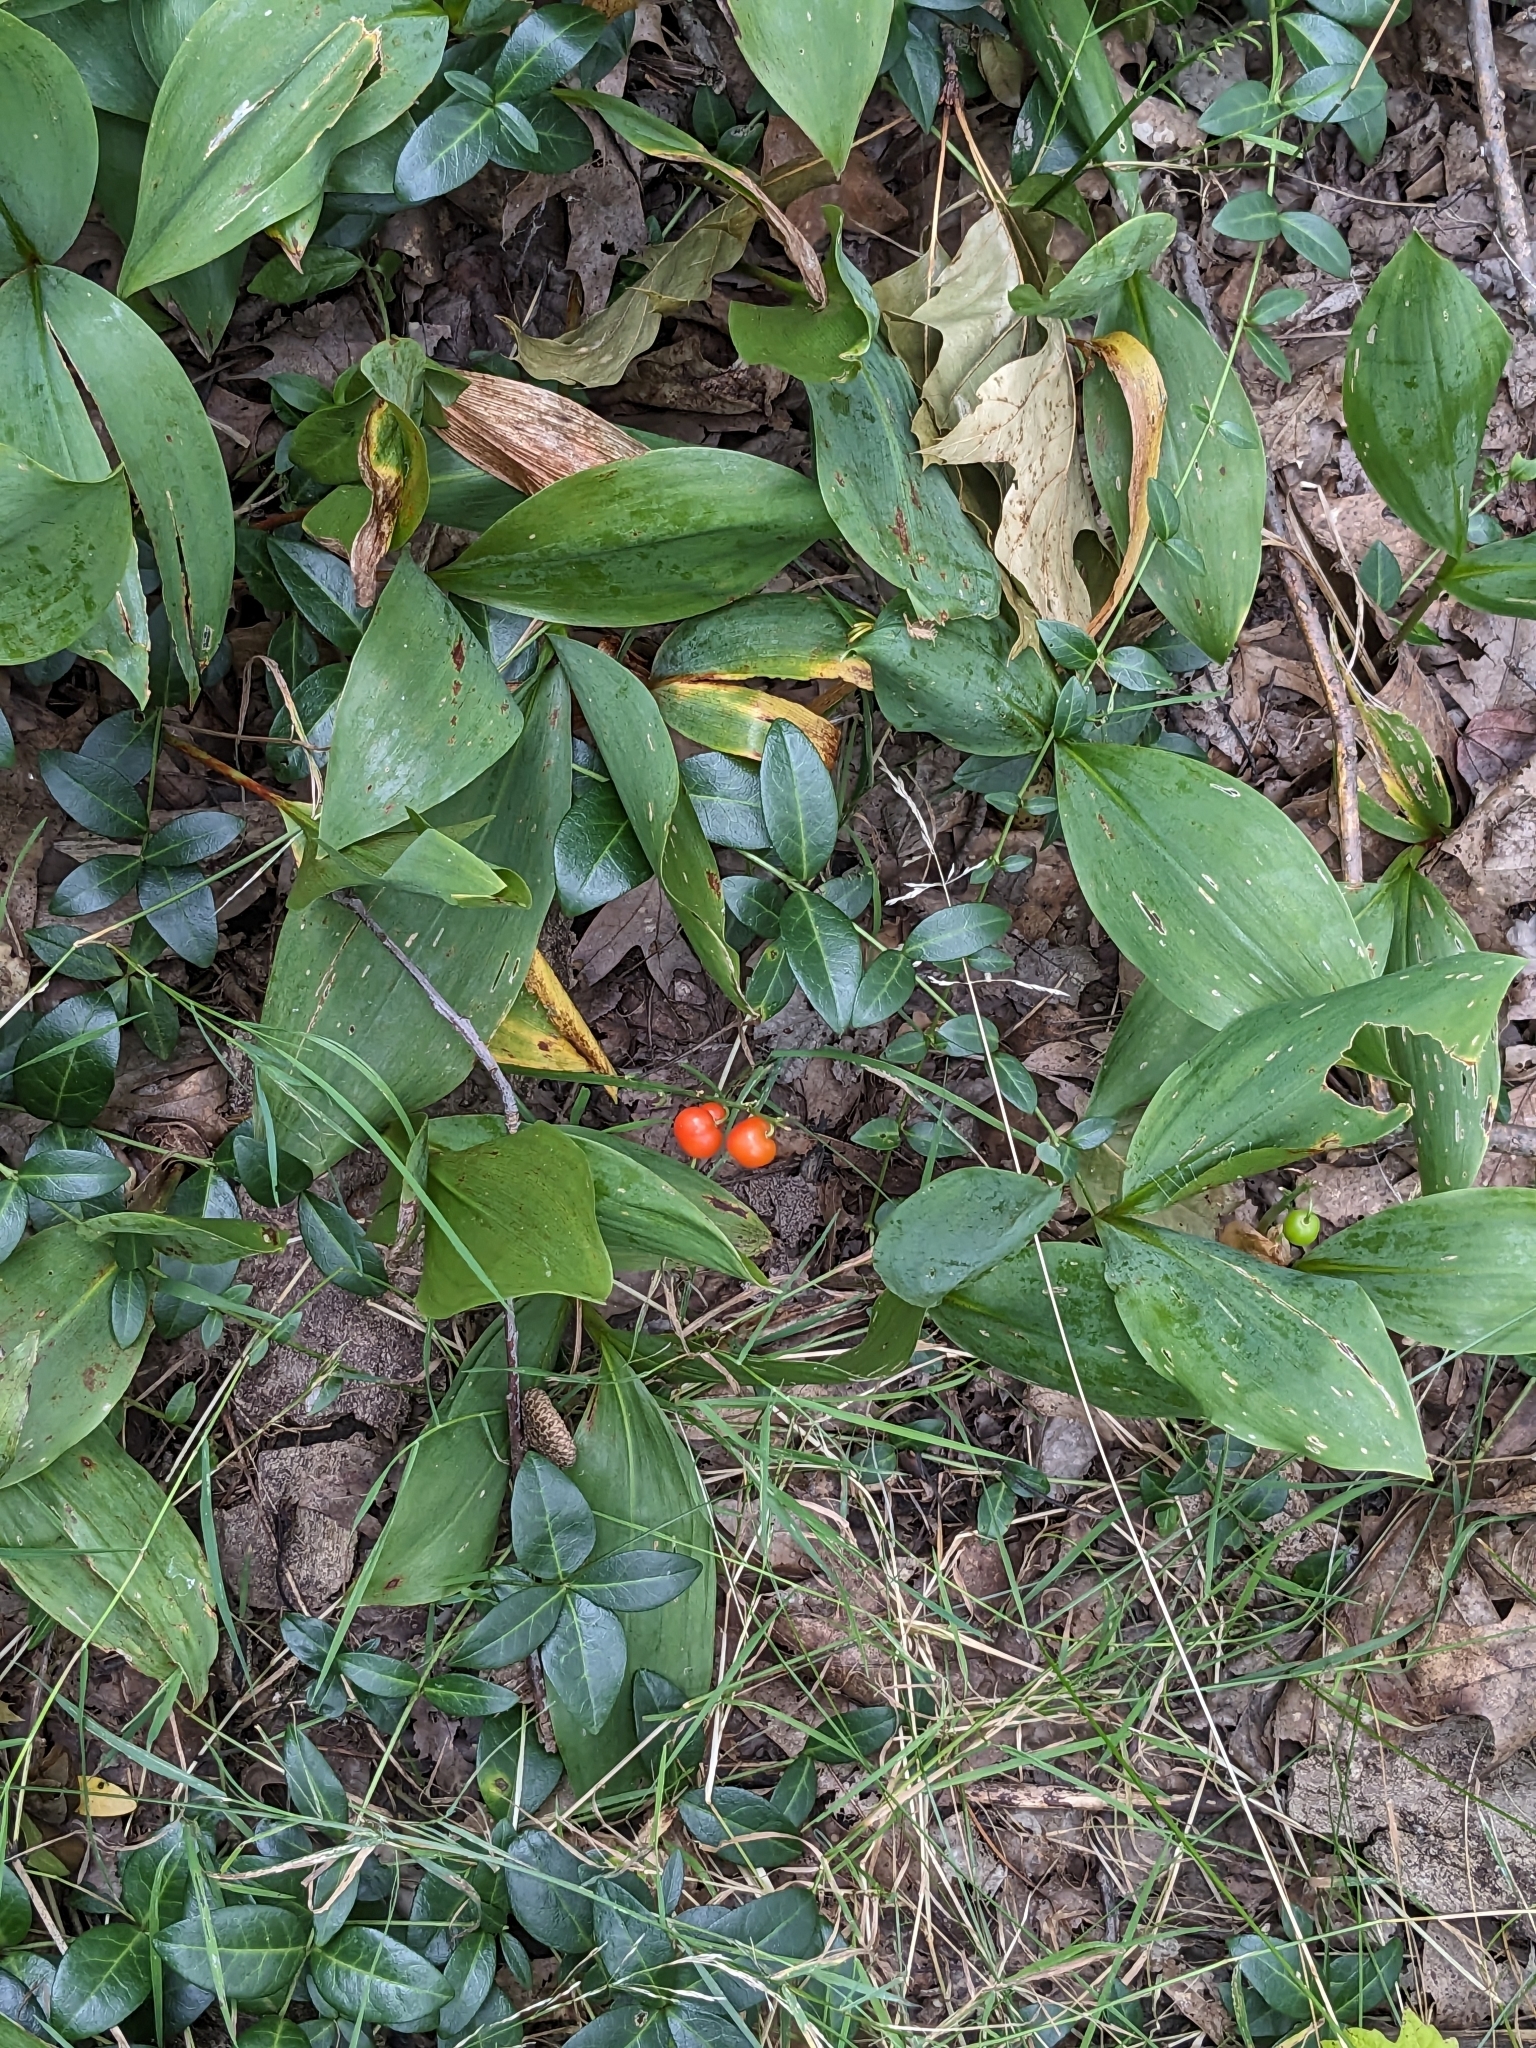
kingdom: Plantae
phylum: Tracheophyta
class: Liliopsida
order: Asparagales
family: Asparagaceae
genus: Convallaria
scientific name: Convallaria majalis
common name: Lily-of-the-valley
